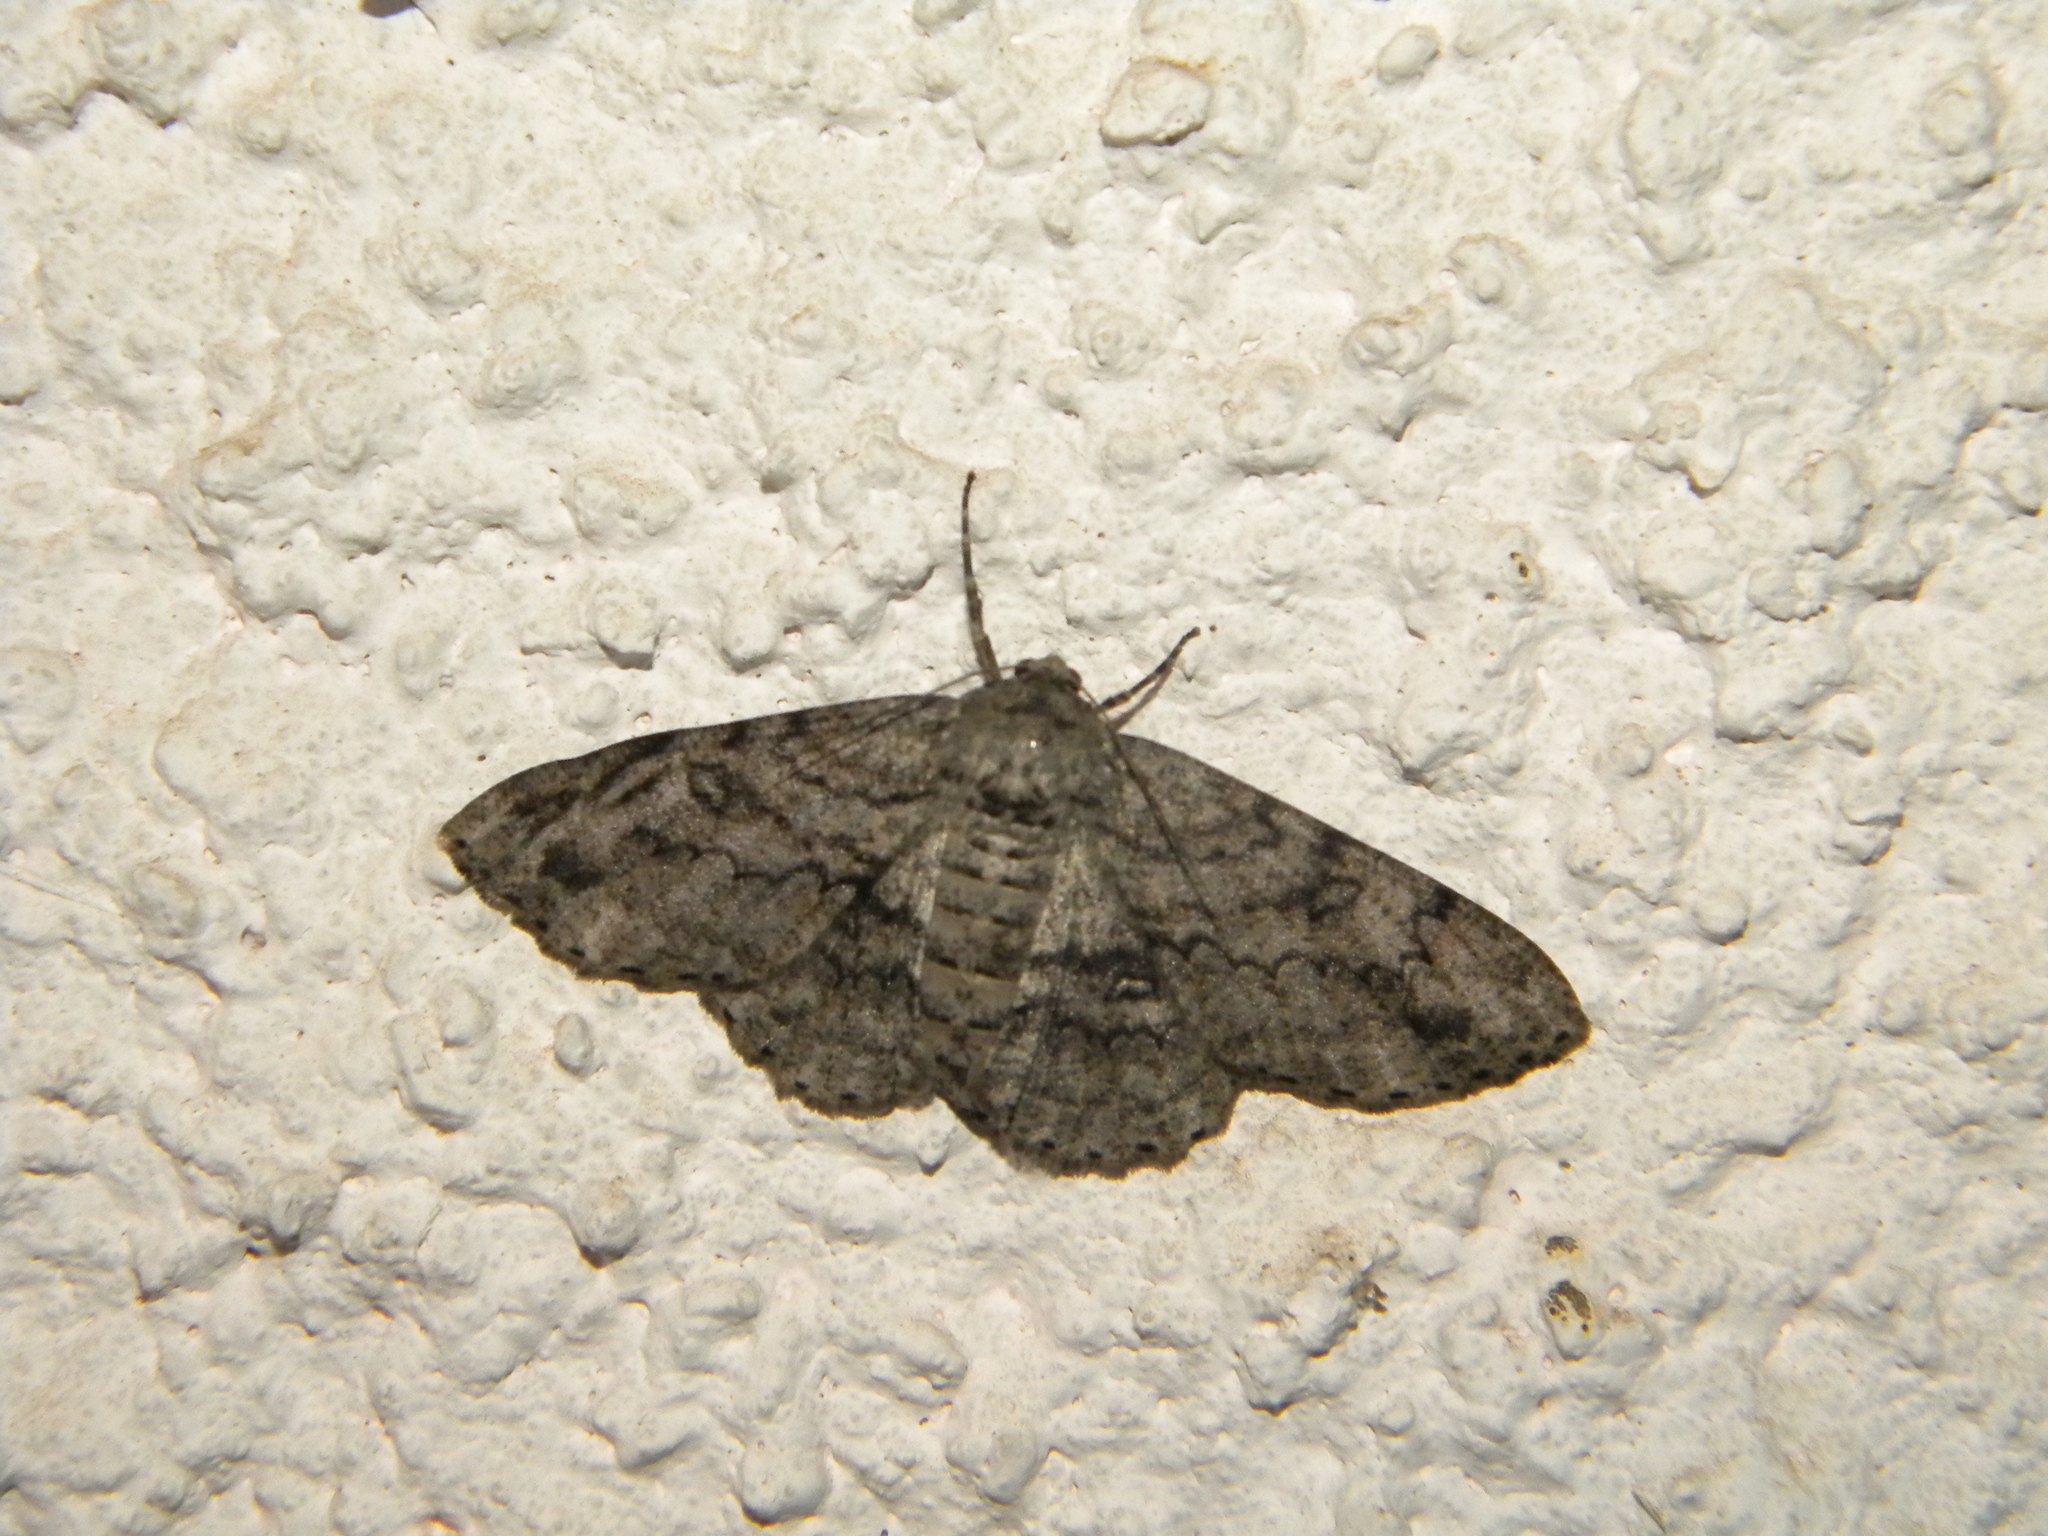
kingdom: Animalia
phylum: Arthropoda
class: Insecta
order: Lepidoptera
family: Geometridae
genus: Ascotis
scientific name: Ascotis selenaria
